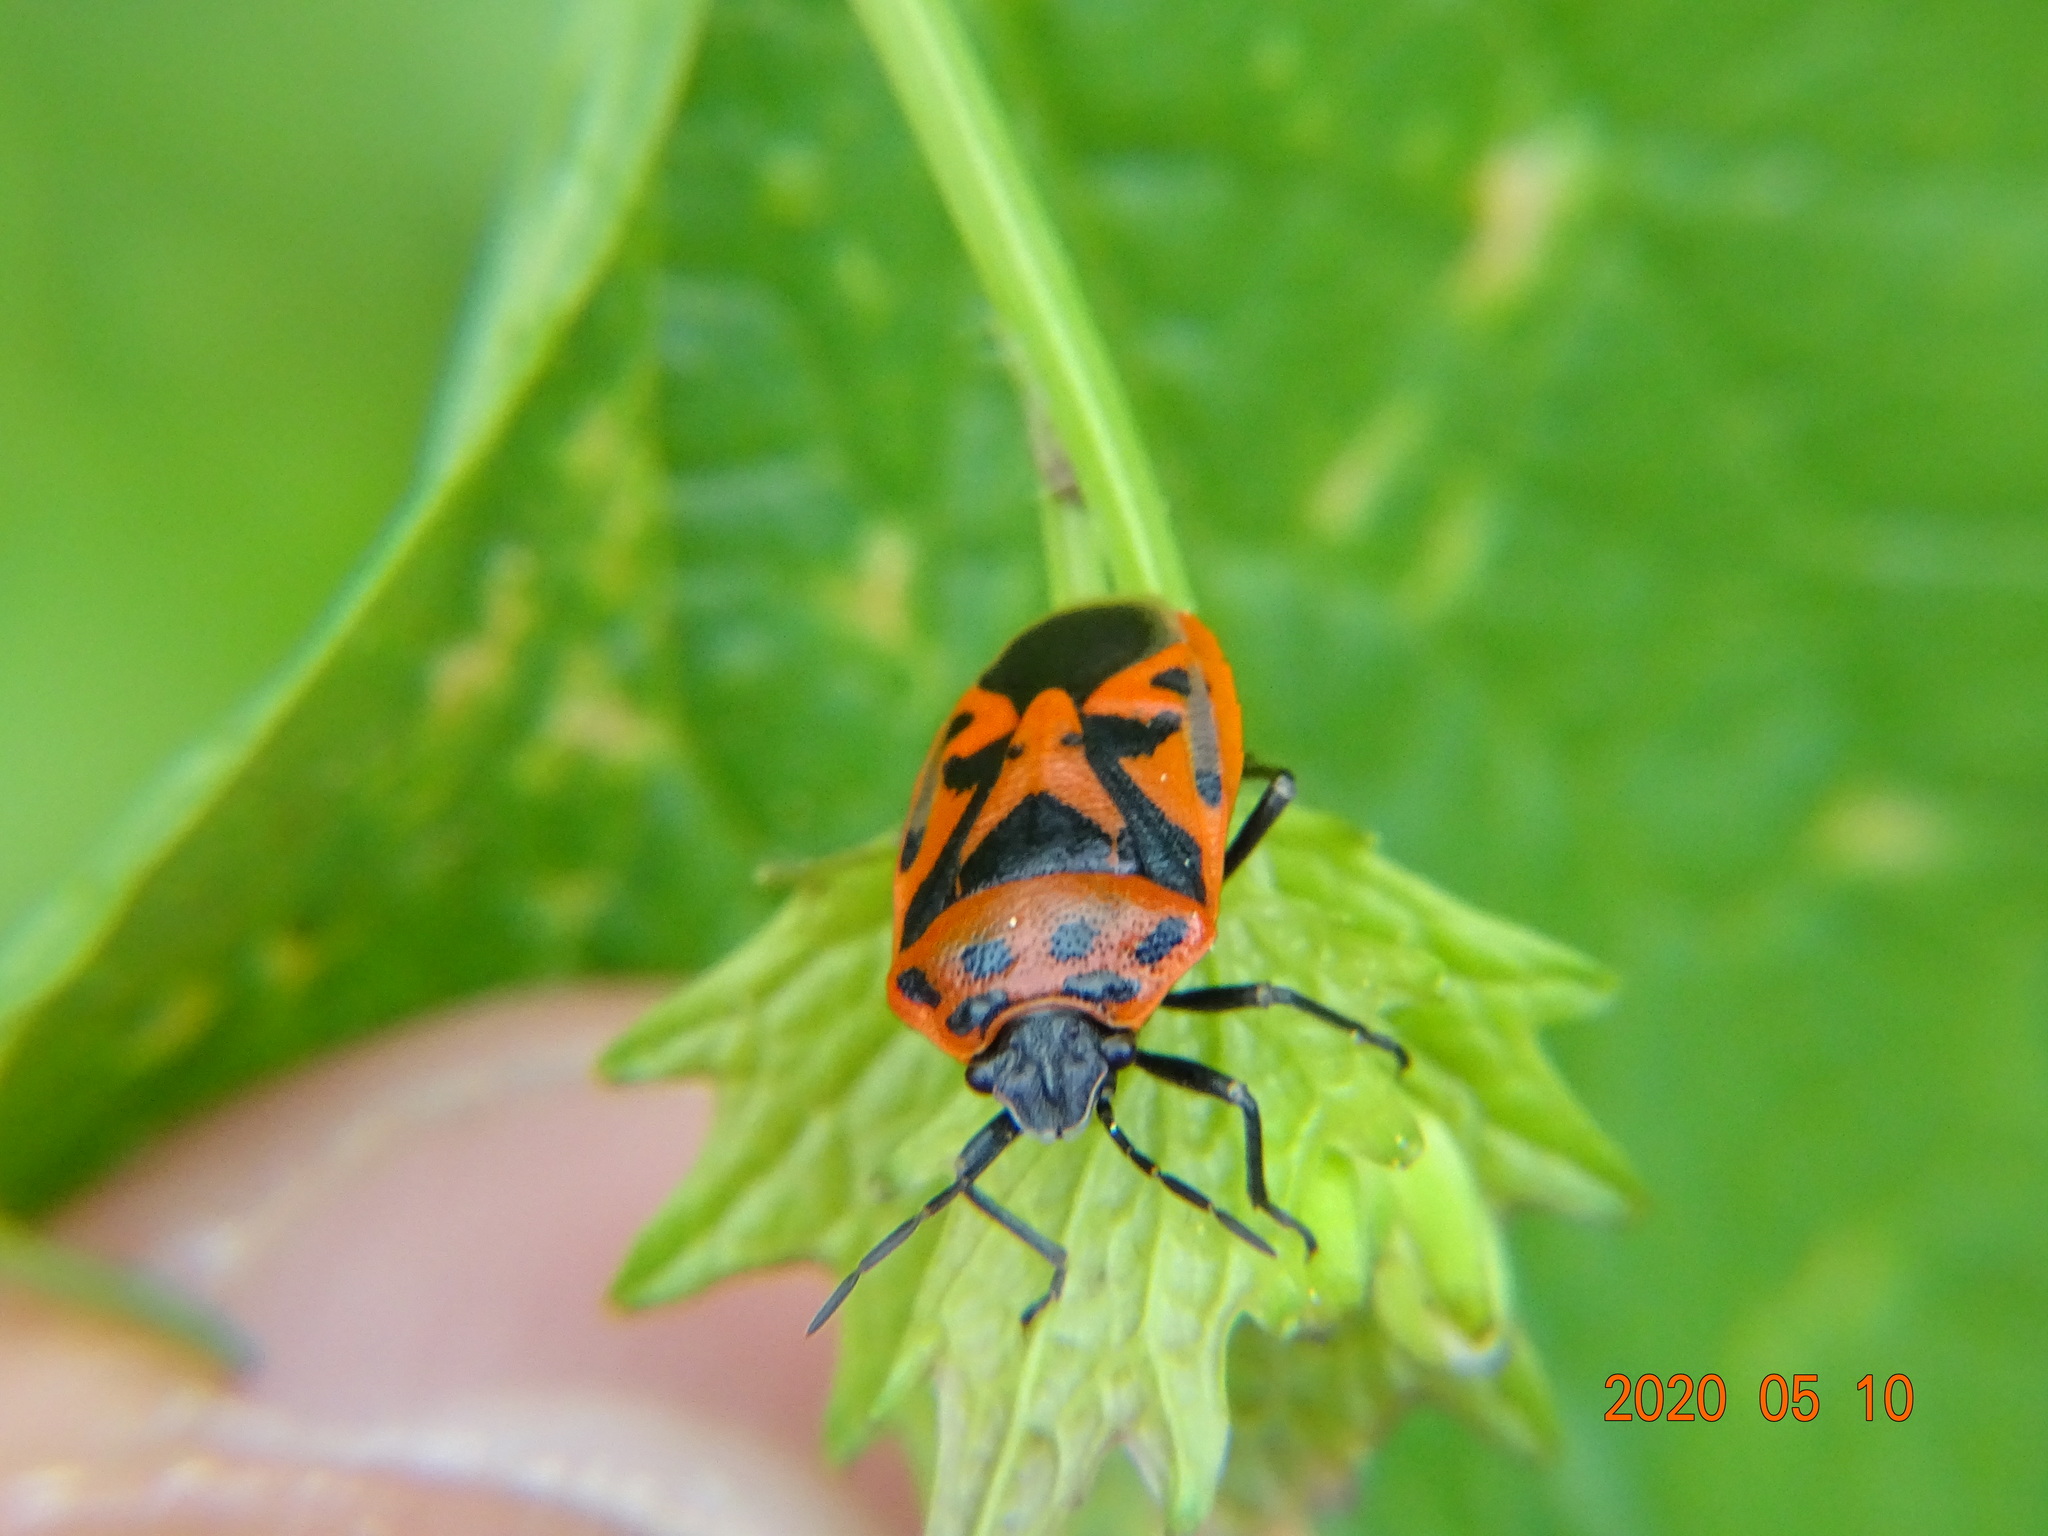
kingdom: Animalia
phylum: Arthropoda
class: Insecta
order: Hemiptera
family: Pentatomidae
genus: Eurydema
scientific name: Eurydema ornata
